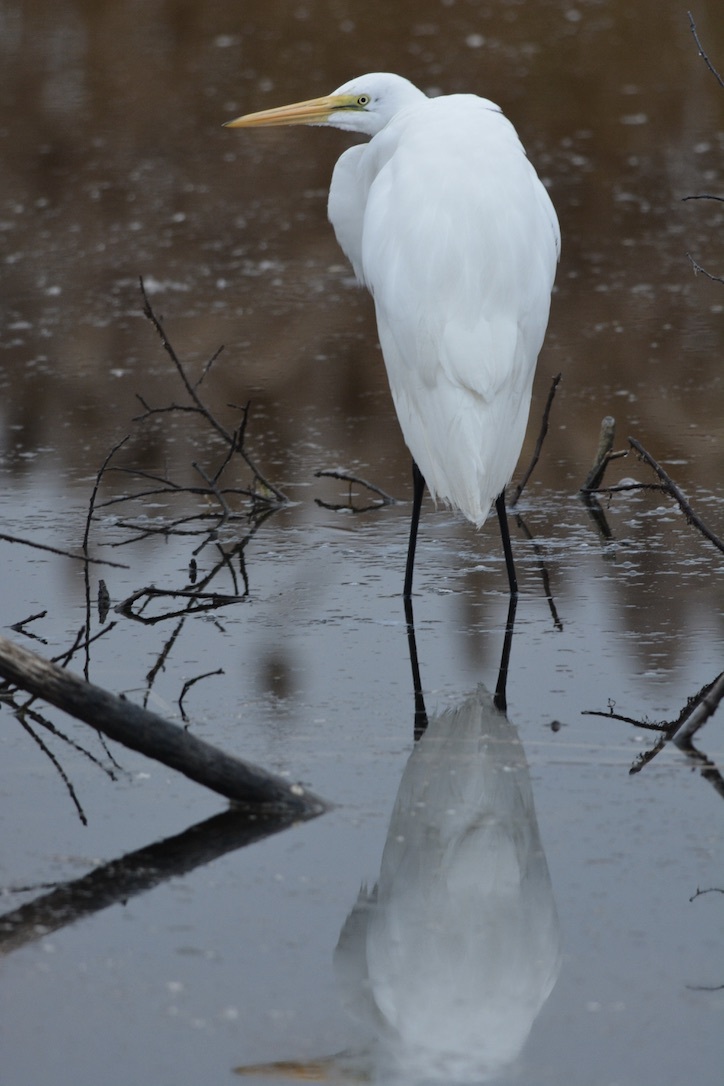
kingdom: Animalia
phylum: Chordata
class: Aves
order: Pelecaniformes
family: Ardeidae
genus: Ardea
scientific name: Ardea alba
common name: Great egret
